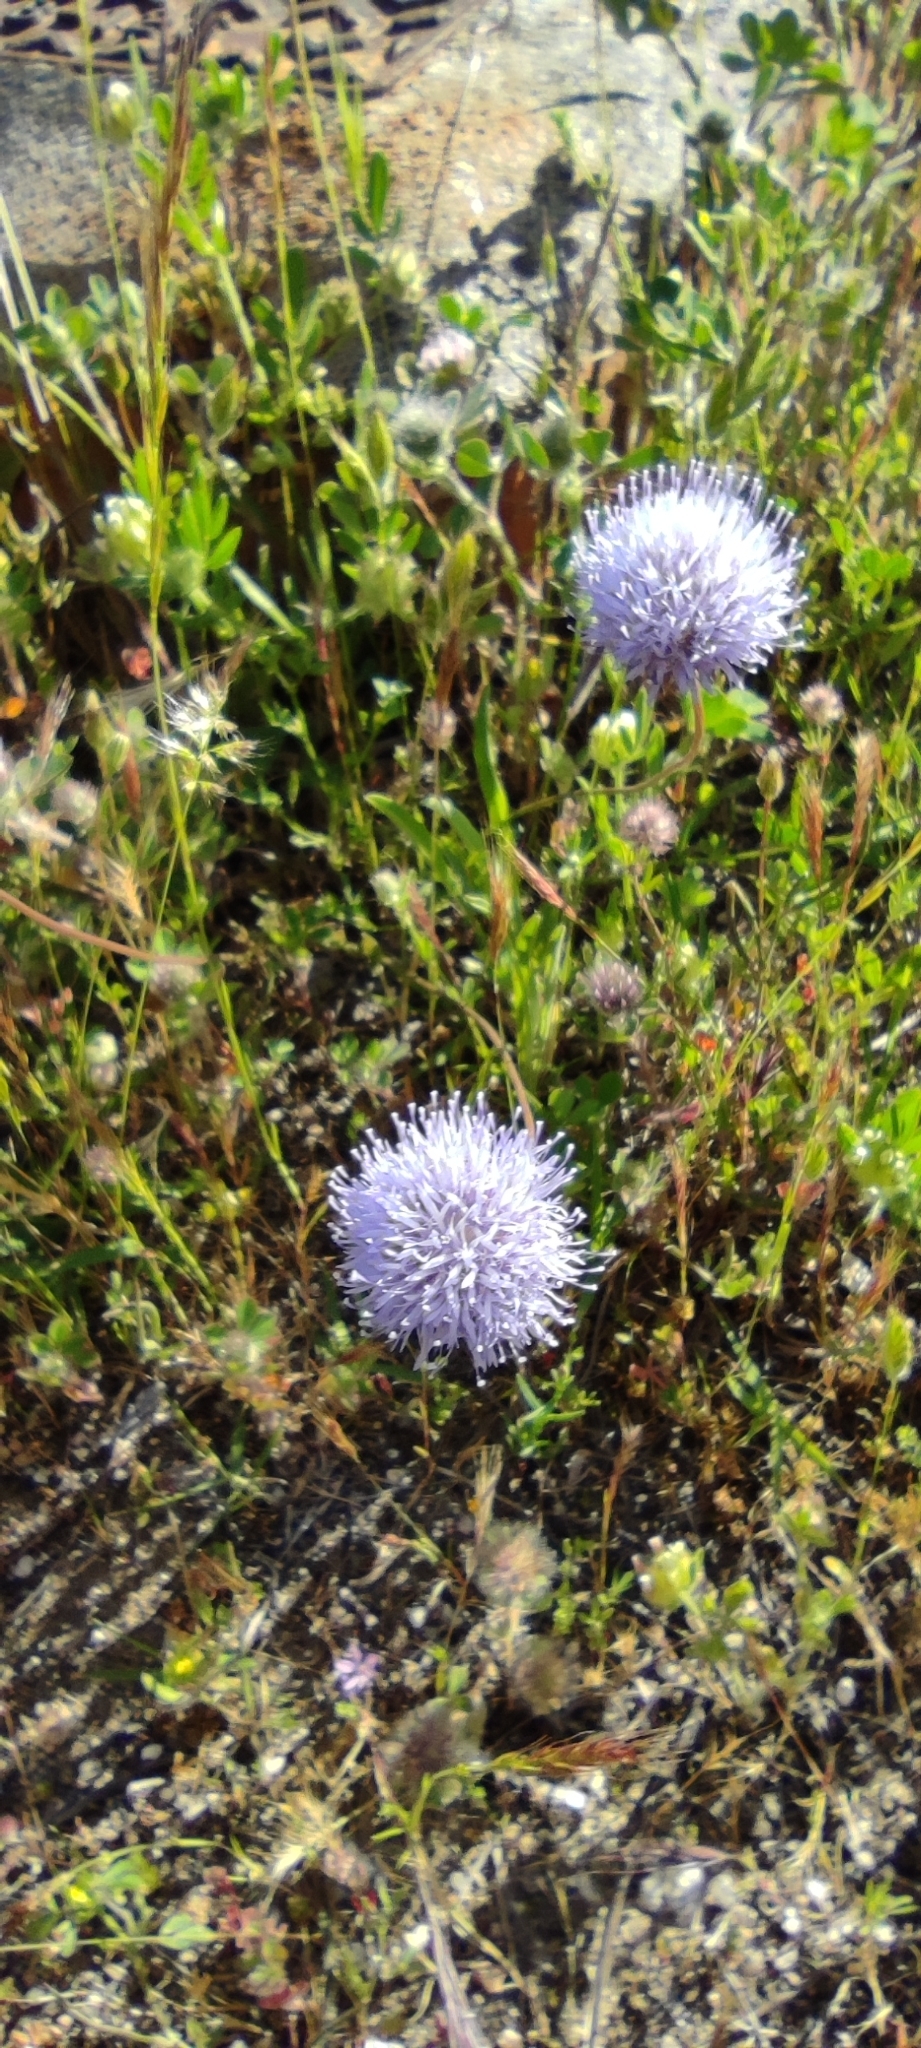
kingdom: Plantae
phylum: Tracheophyta
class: Magnoliopsida
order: Asterales
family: Campanulaceae
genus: Jasione
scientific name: Jasione montana
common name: Sheep's-bit
